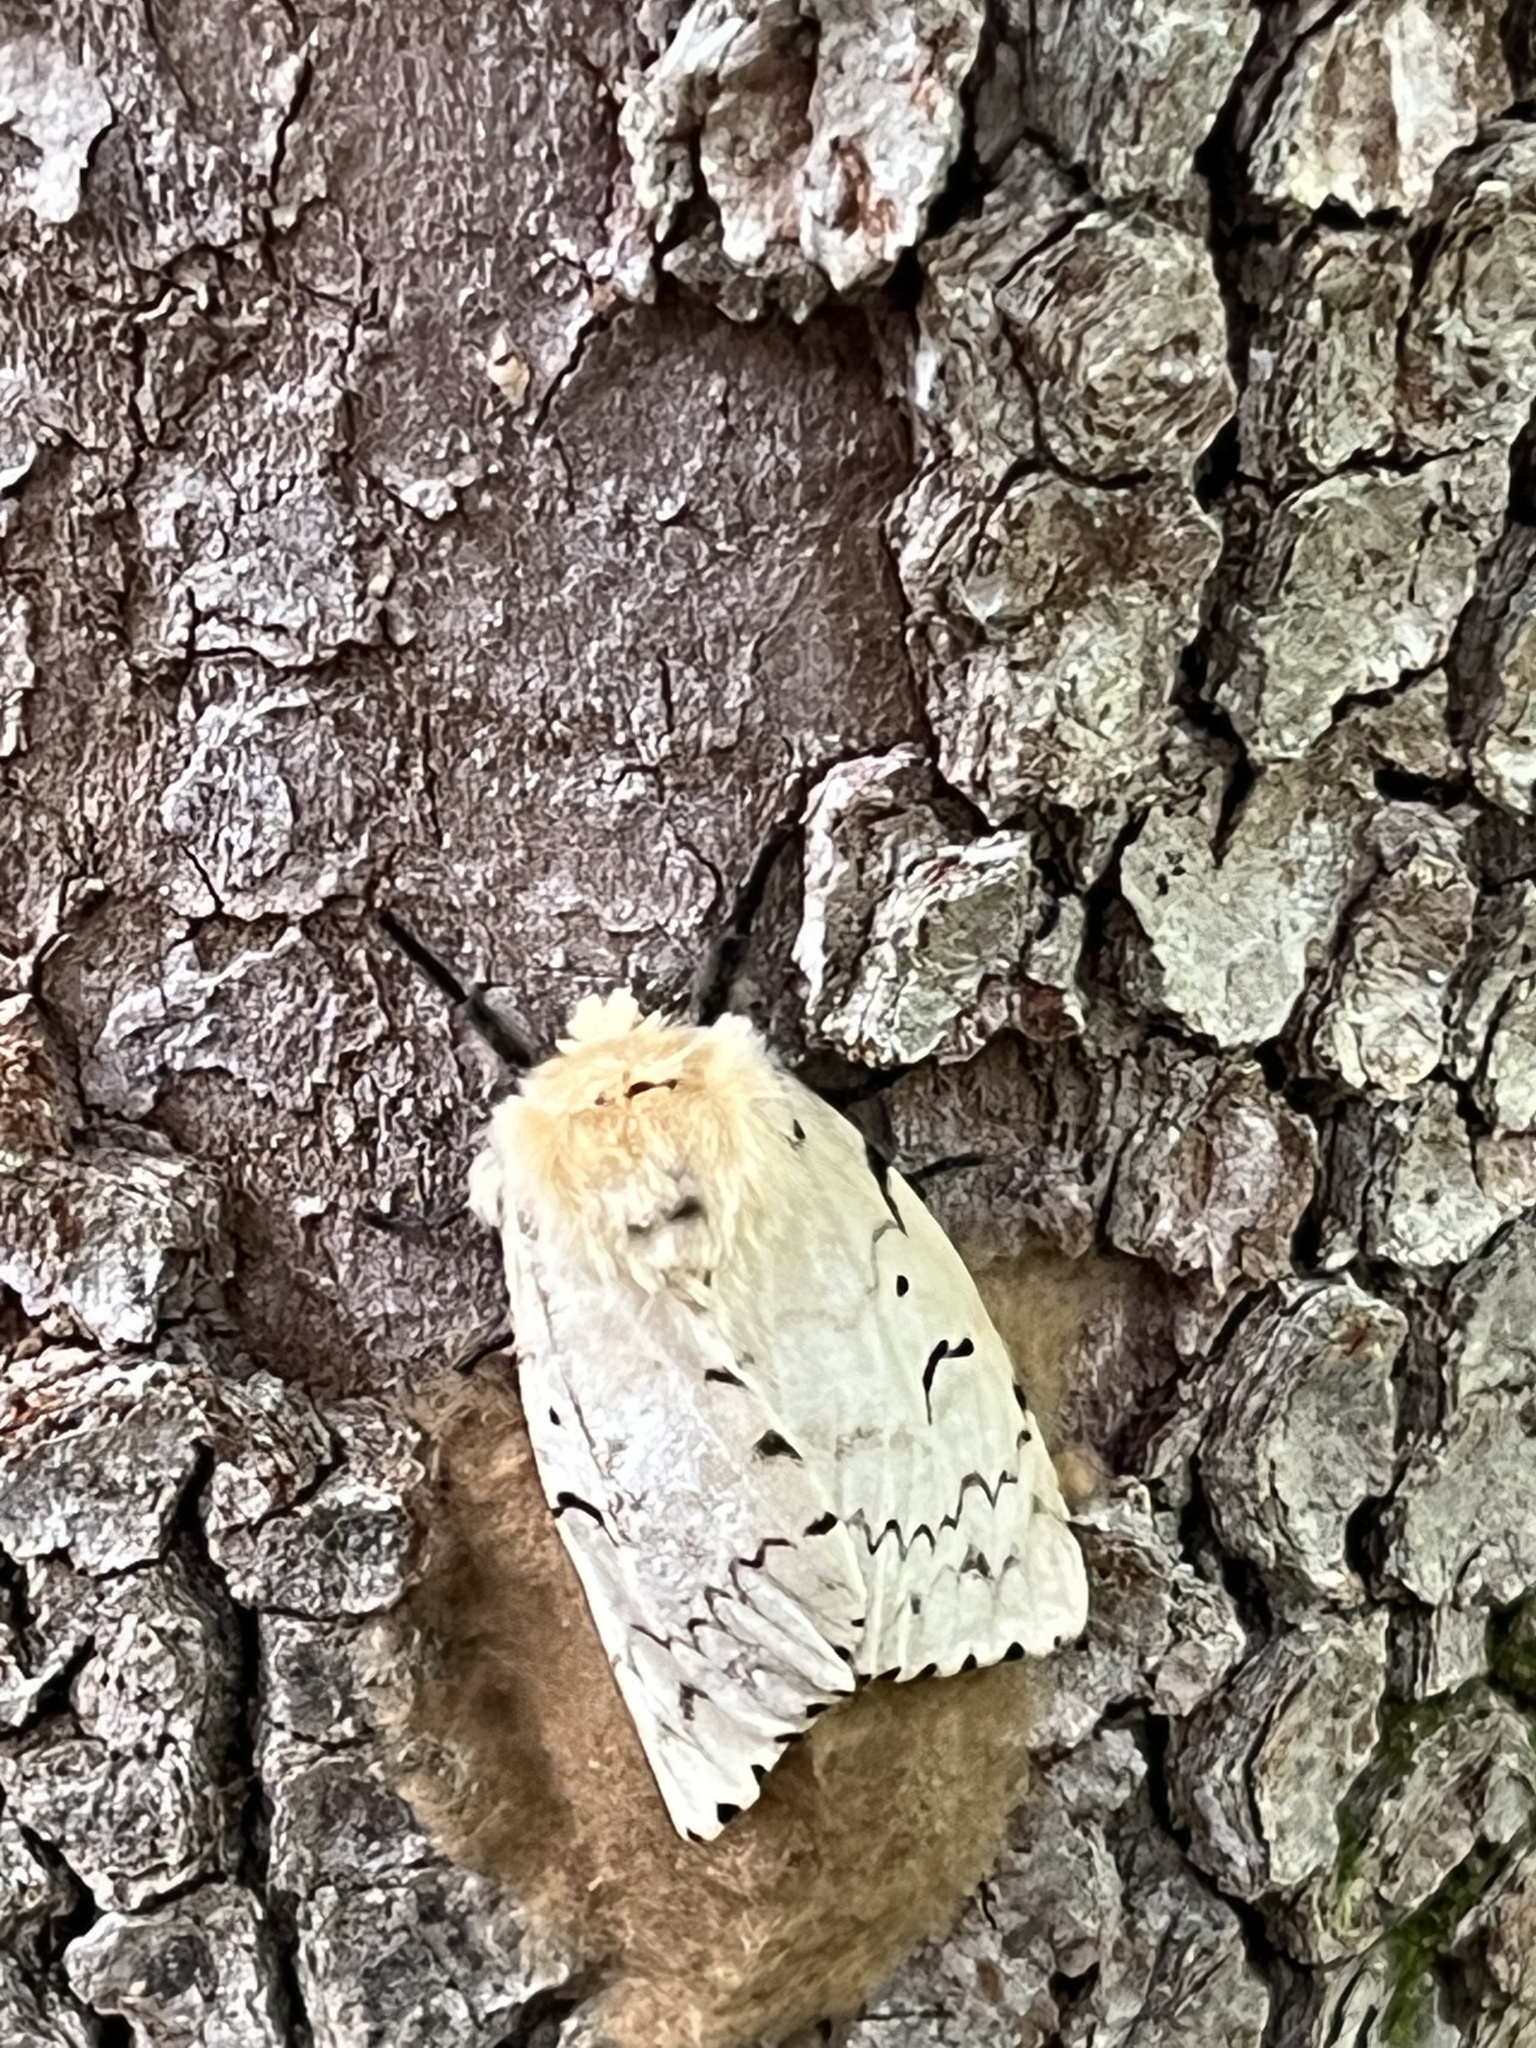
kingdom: Animalia
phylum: Arthropoda
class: Insecta
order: Lepidoptera
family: Erebidae
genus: Lymantria
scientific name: Lymantria dispar
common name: Gypsy moth
